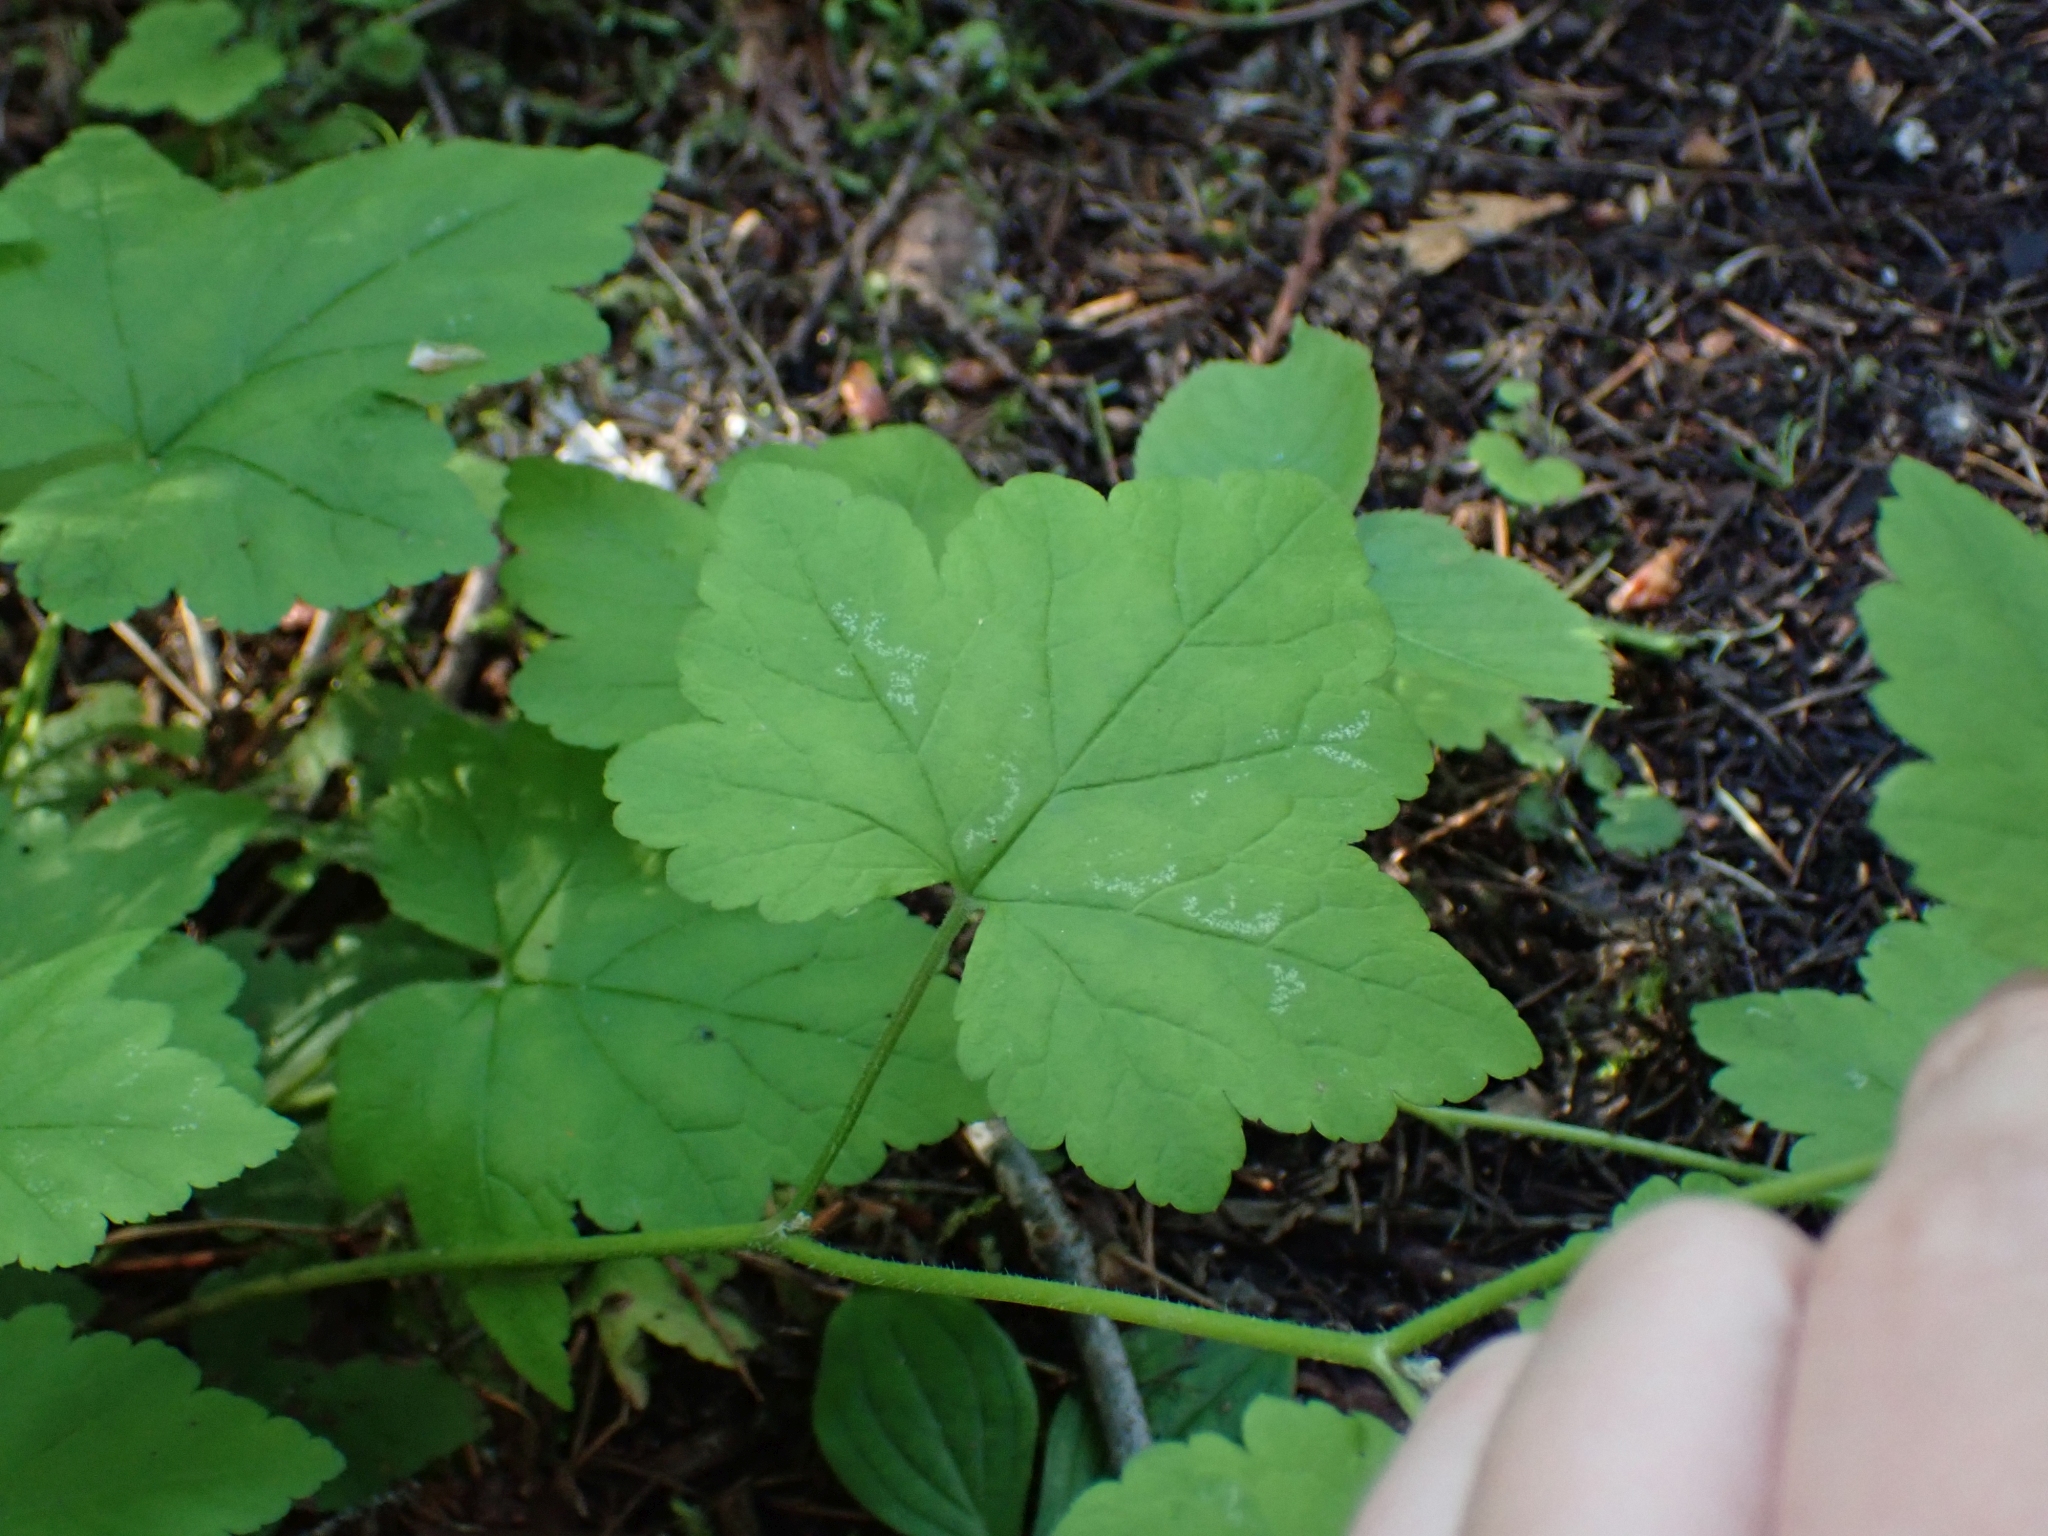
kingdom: Plantae
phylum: Tracheophyta
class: Magnoliopsida
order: Saxifragales
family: Saxifragaceae
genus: Tiarella
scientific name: Tiarella trifoliata
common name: Sugar-scoop
